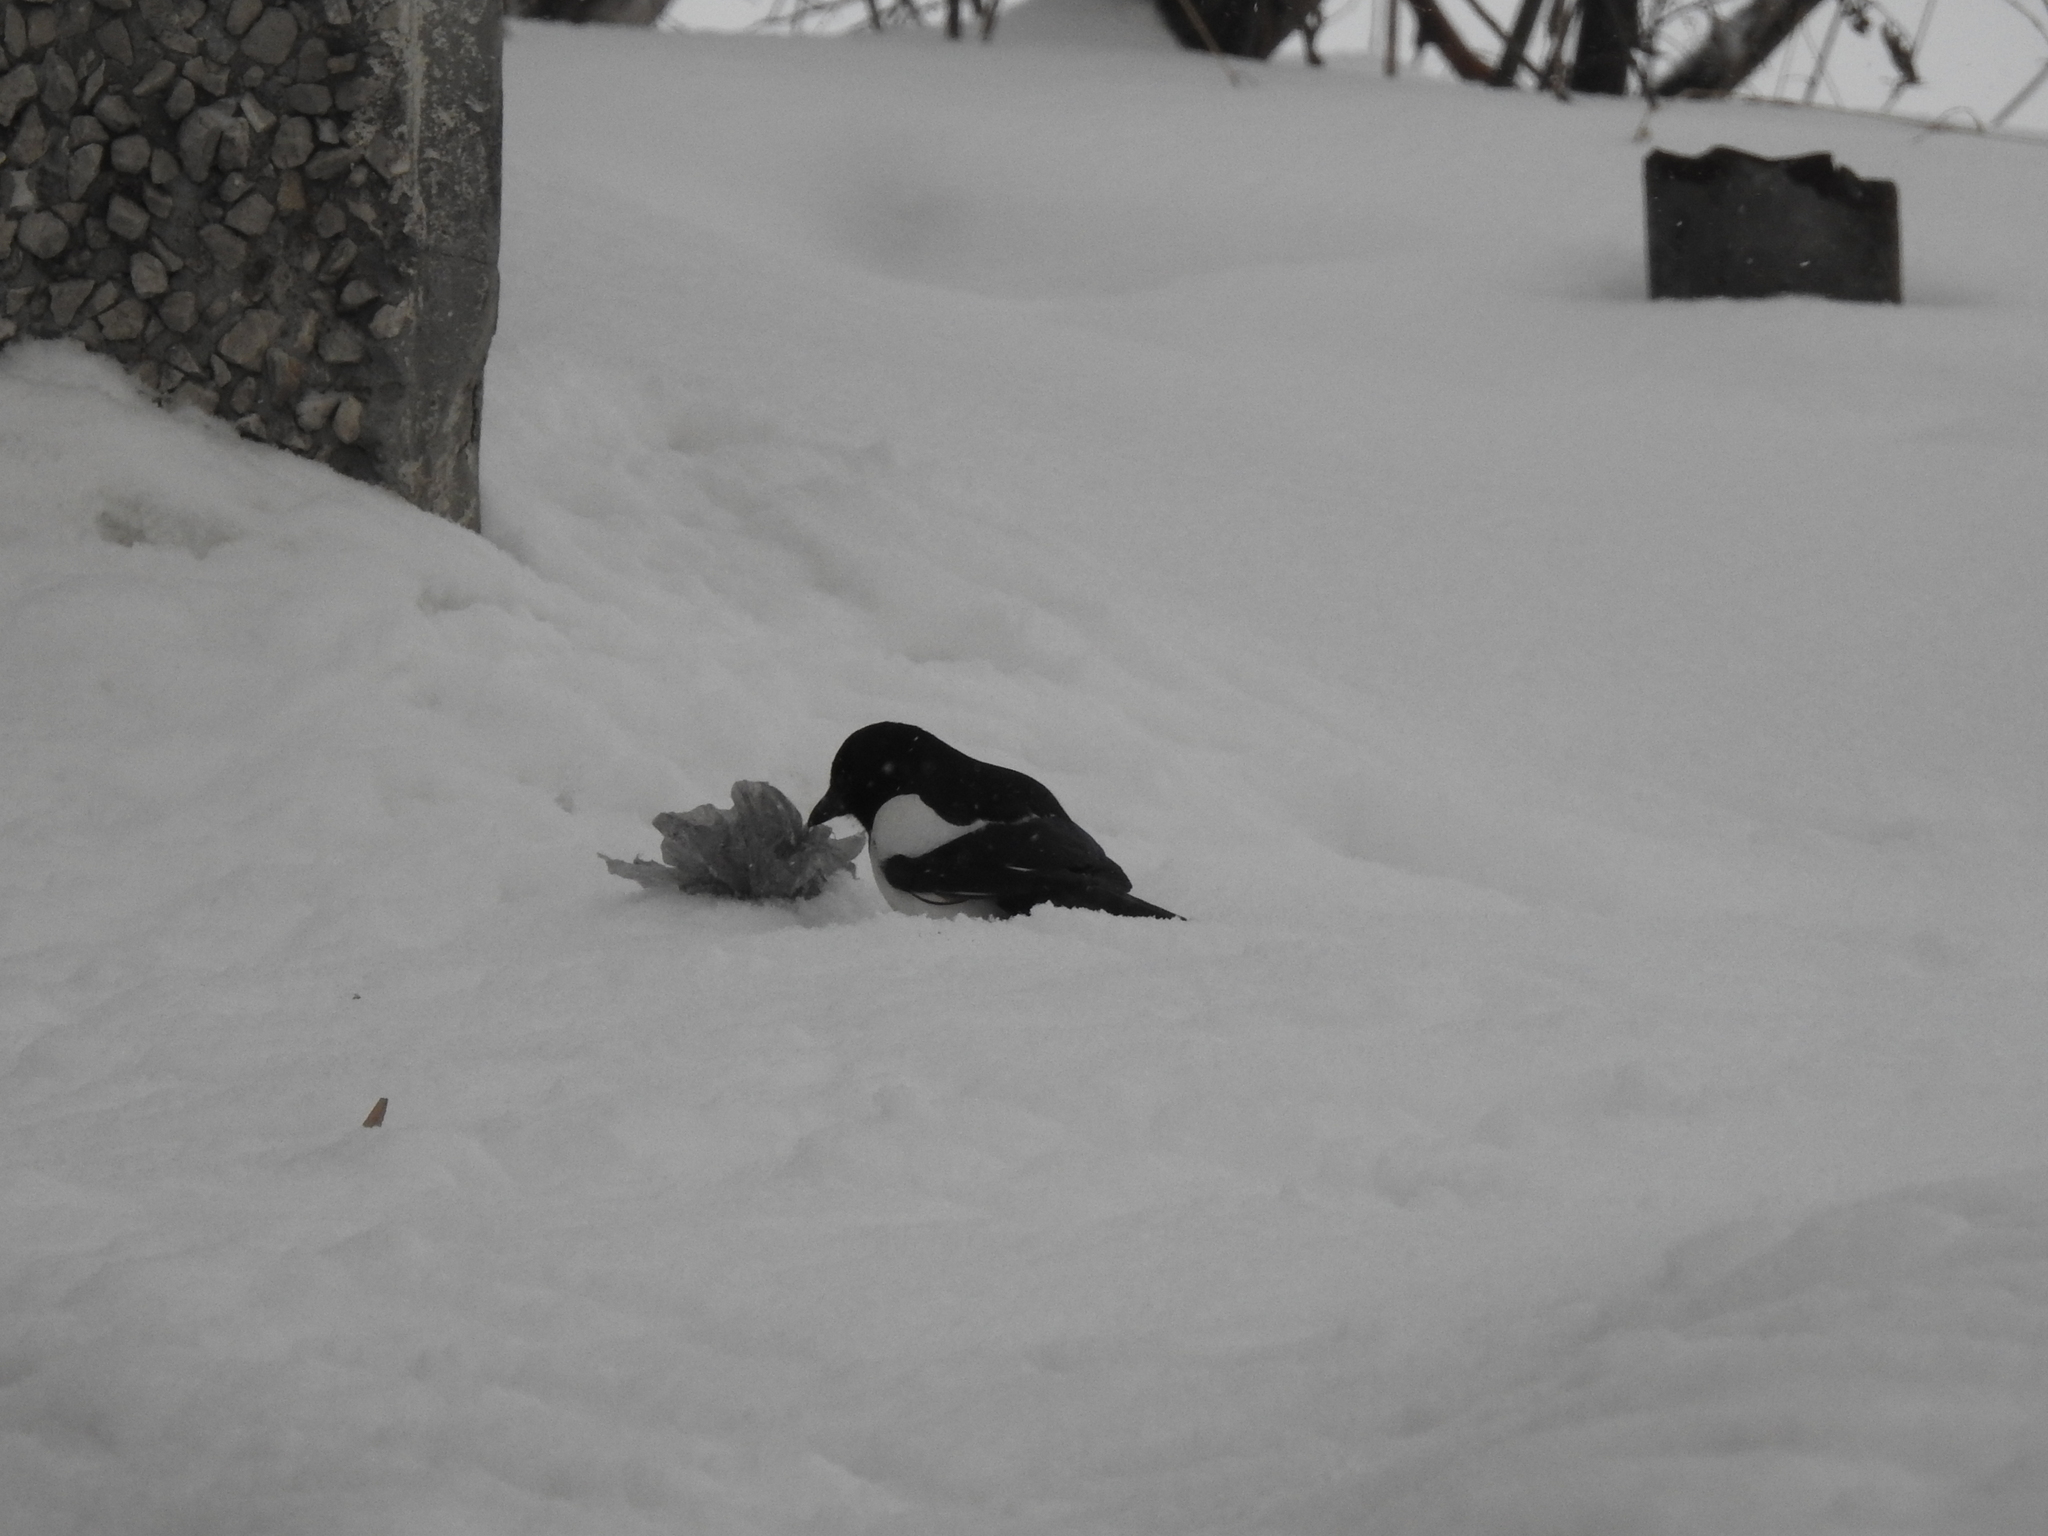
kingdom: Animalia
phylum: Chordata
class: Aves
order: Passeriformes
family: Corvidae
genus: Pica
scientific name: Pica pica
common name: Eurasian magpie
